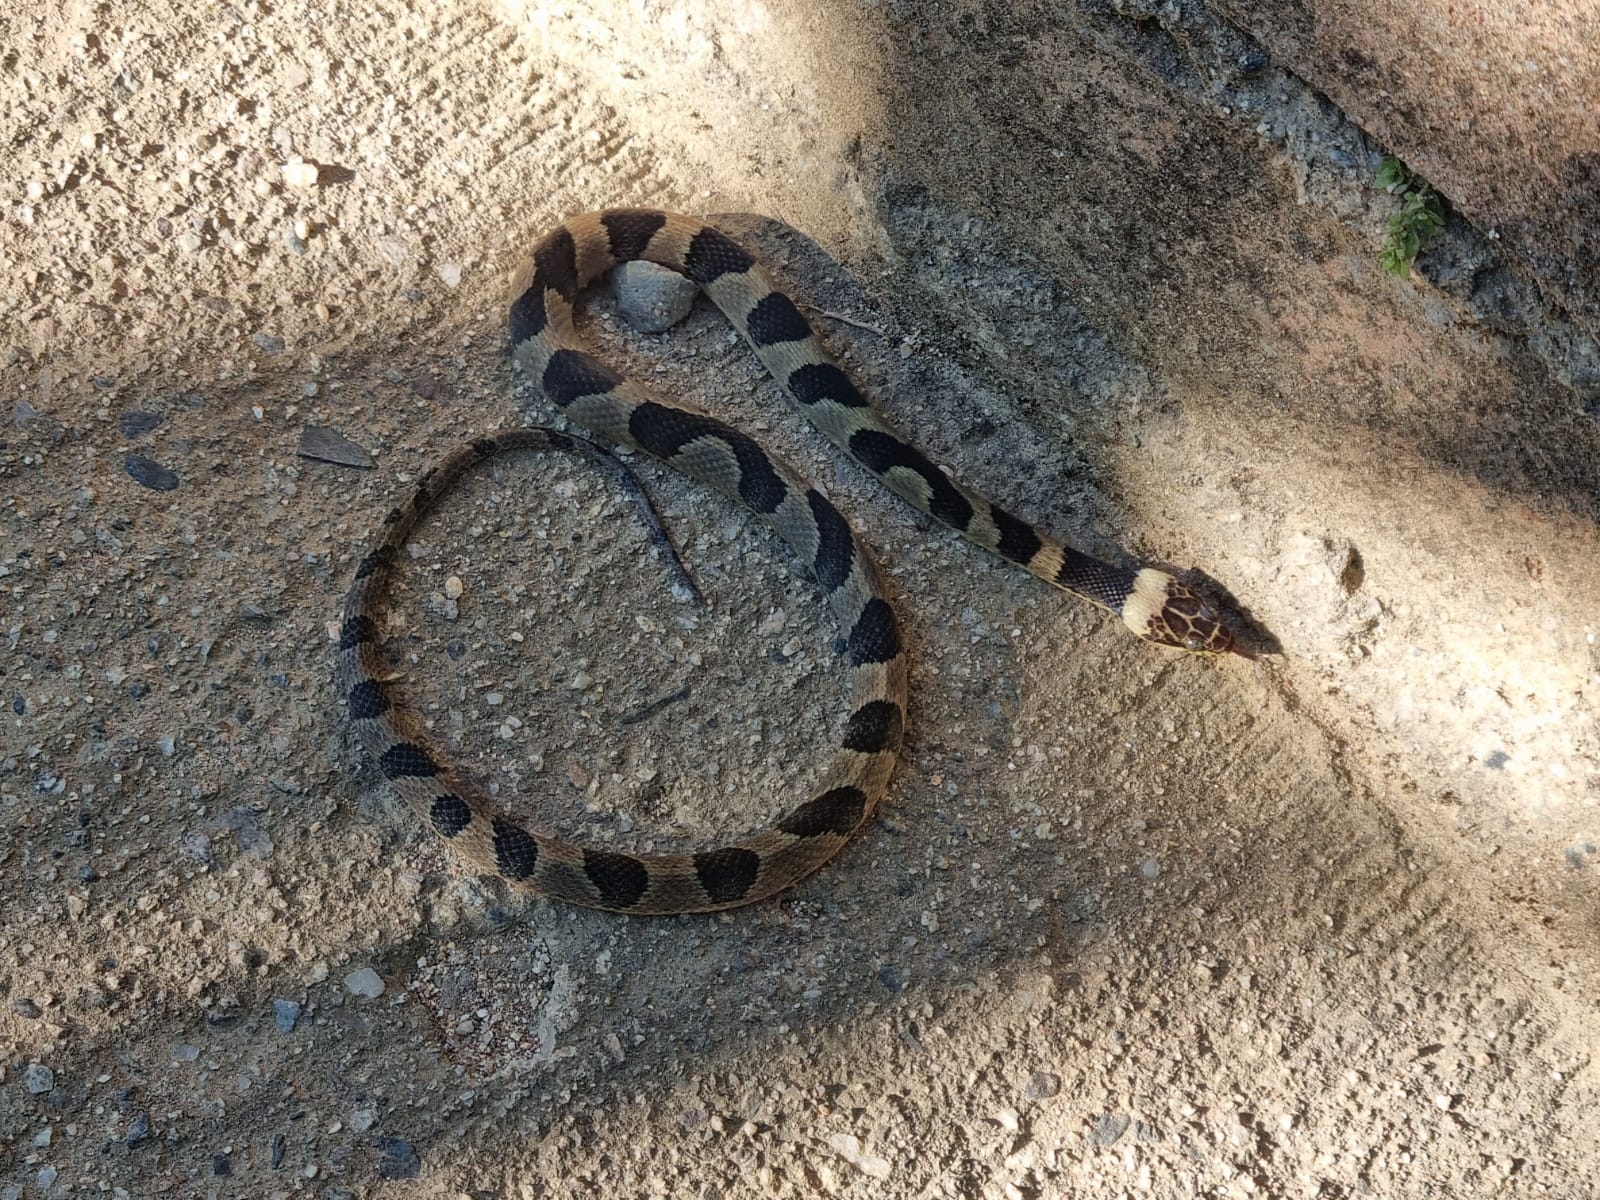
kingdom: Animalia
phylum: Chordata
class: Squamata
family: Colubridae
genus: Leptodeira
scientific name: Leptodeira maculata
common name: Southwestern cat-eyed snake
